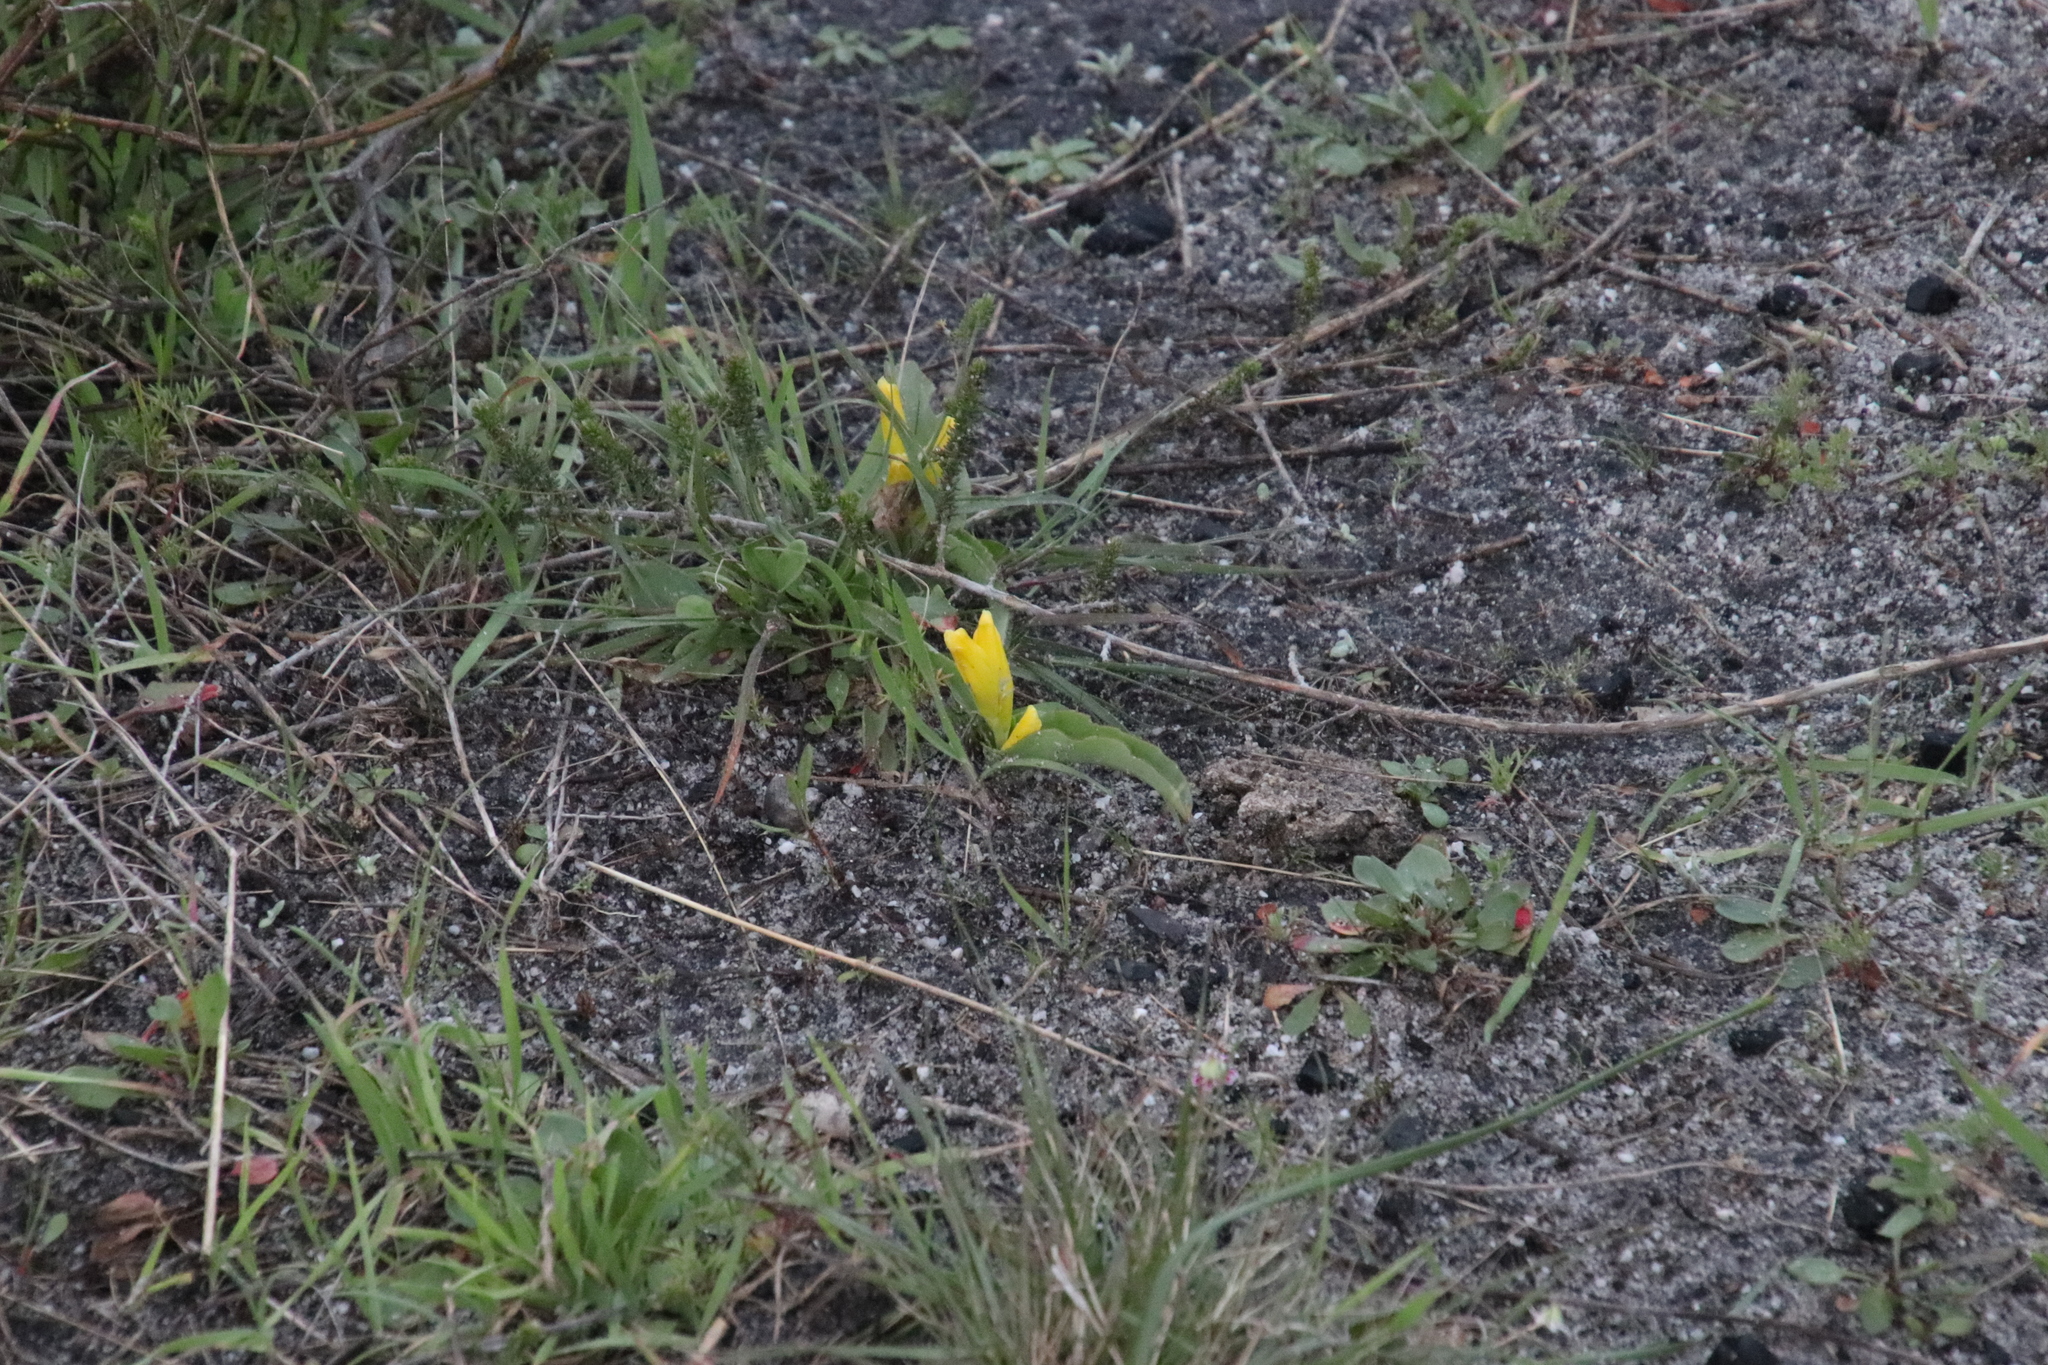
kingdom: Plantae
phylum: Tracheophyta
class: Liliopsida
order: Asparagales
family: Asparagaceae
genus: Lachenalia
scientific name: Lachenalia reflexa
